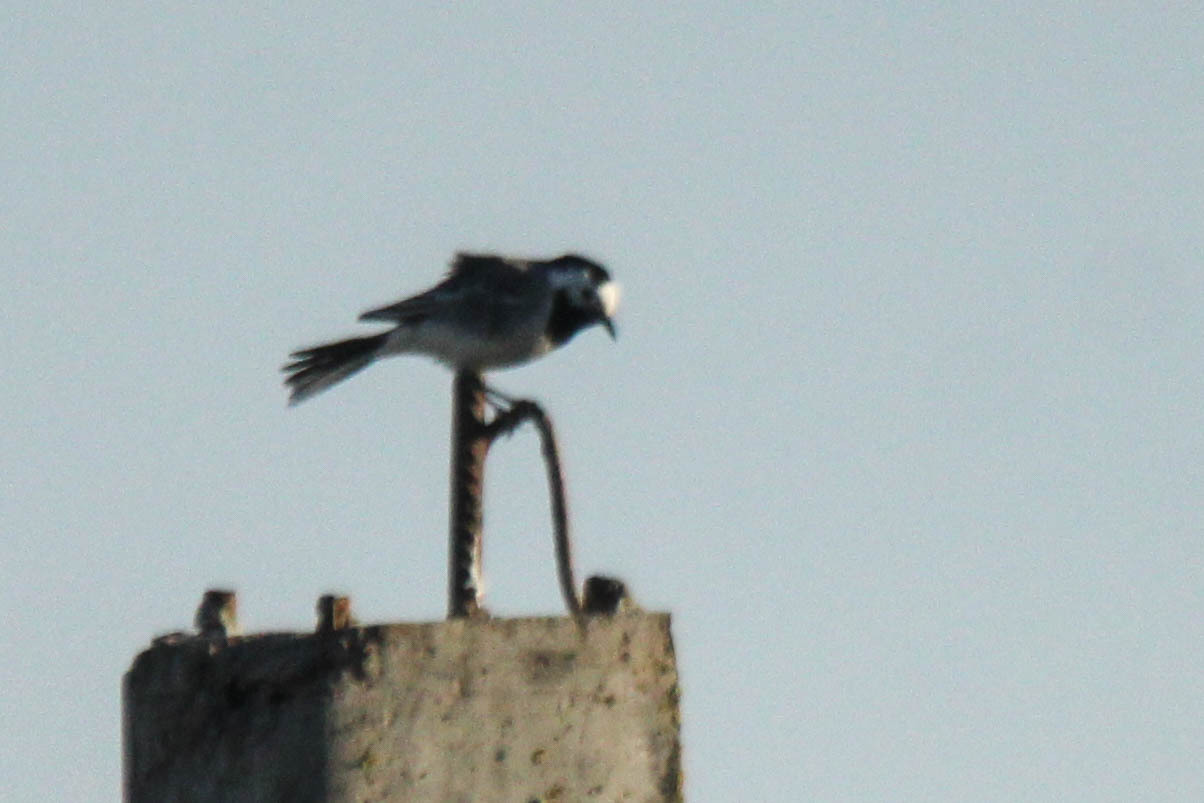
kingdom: Animalia
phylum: Chordata
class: Aves
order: Passeriformes
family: Motacillidae
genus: Motacilla
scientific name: Motacilla alba
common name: White wagtail
